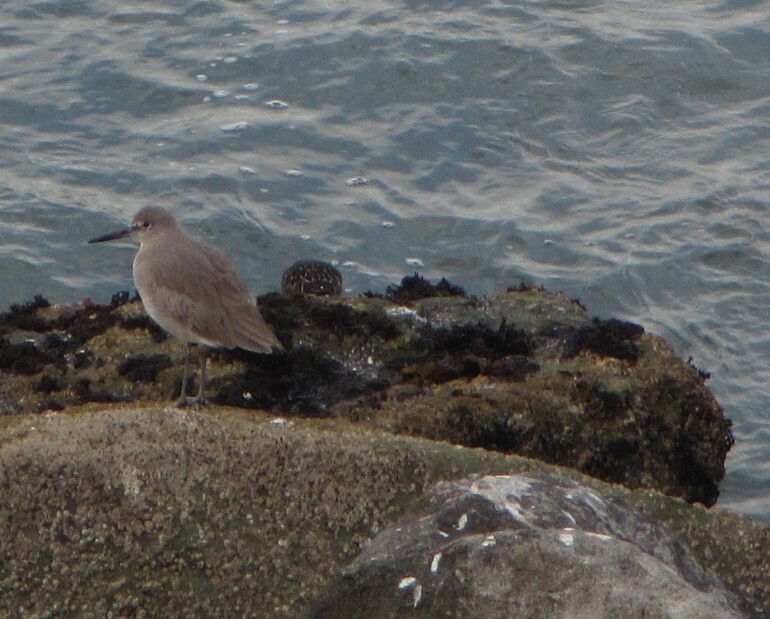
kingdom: Animalia
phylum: Chordata
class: Aves
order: Charadriiformes
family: Scolopacidae
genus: Tringa
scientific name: Tringa semipalmata
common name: Willet
